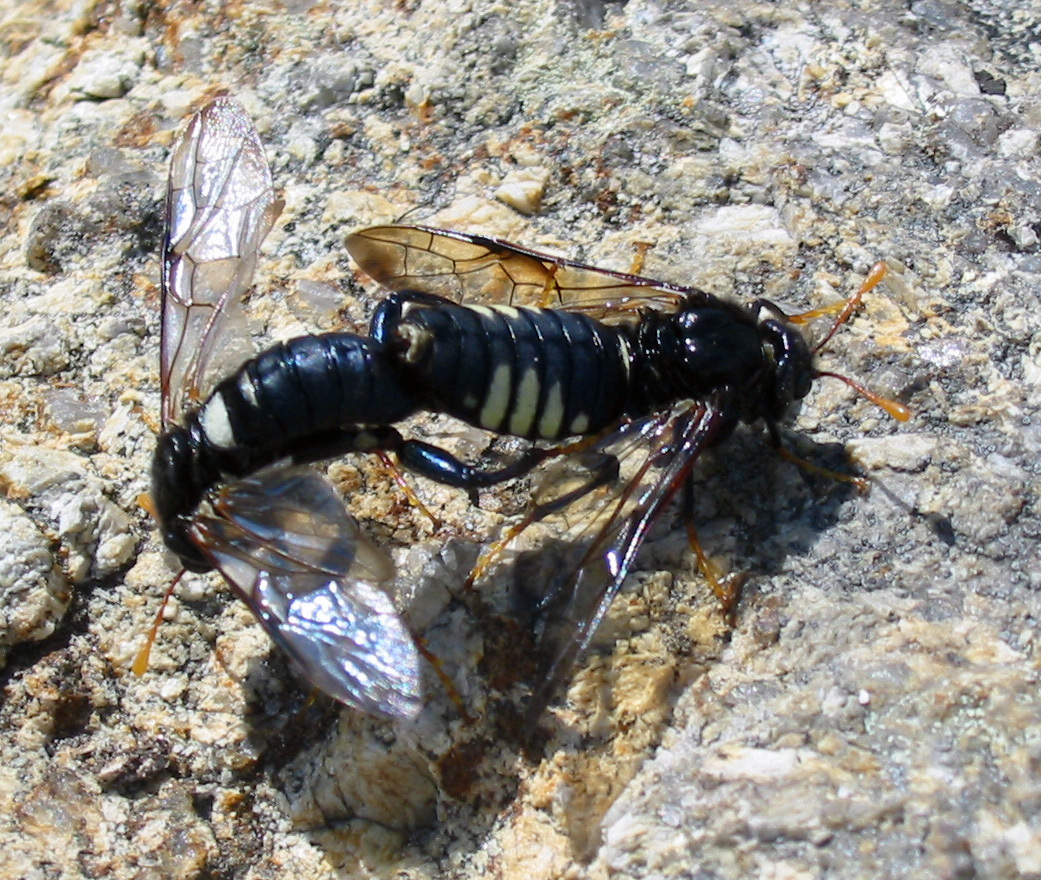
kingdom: Animalia
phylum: Arthropoda
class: Insecta
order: Hymenoptera
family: Cimbicidae
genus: Cimbex
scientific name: Cimbex americana
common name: Elm sawfly
